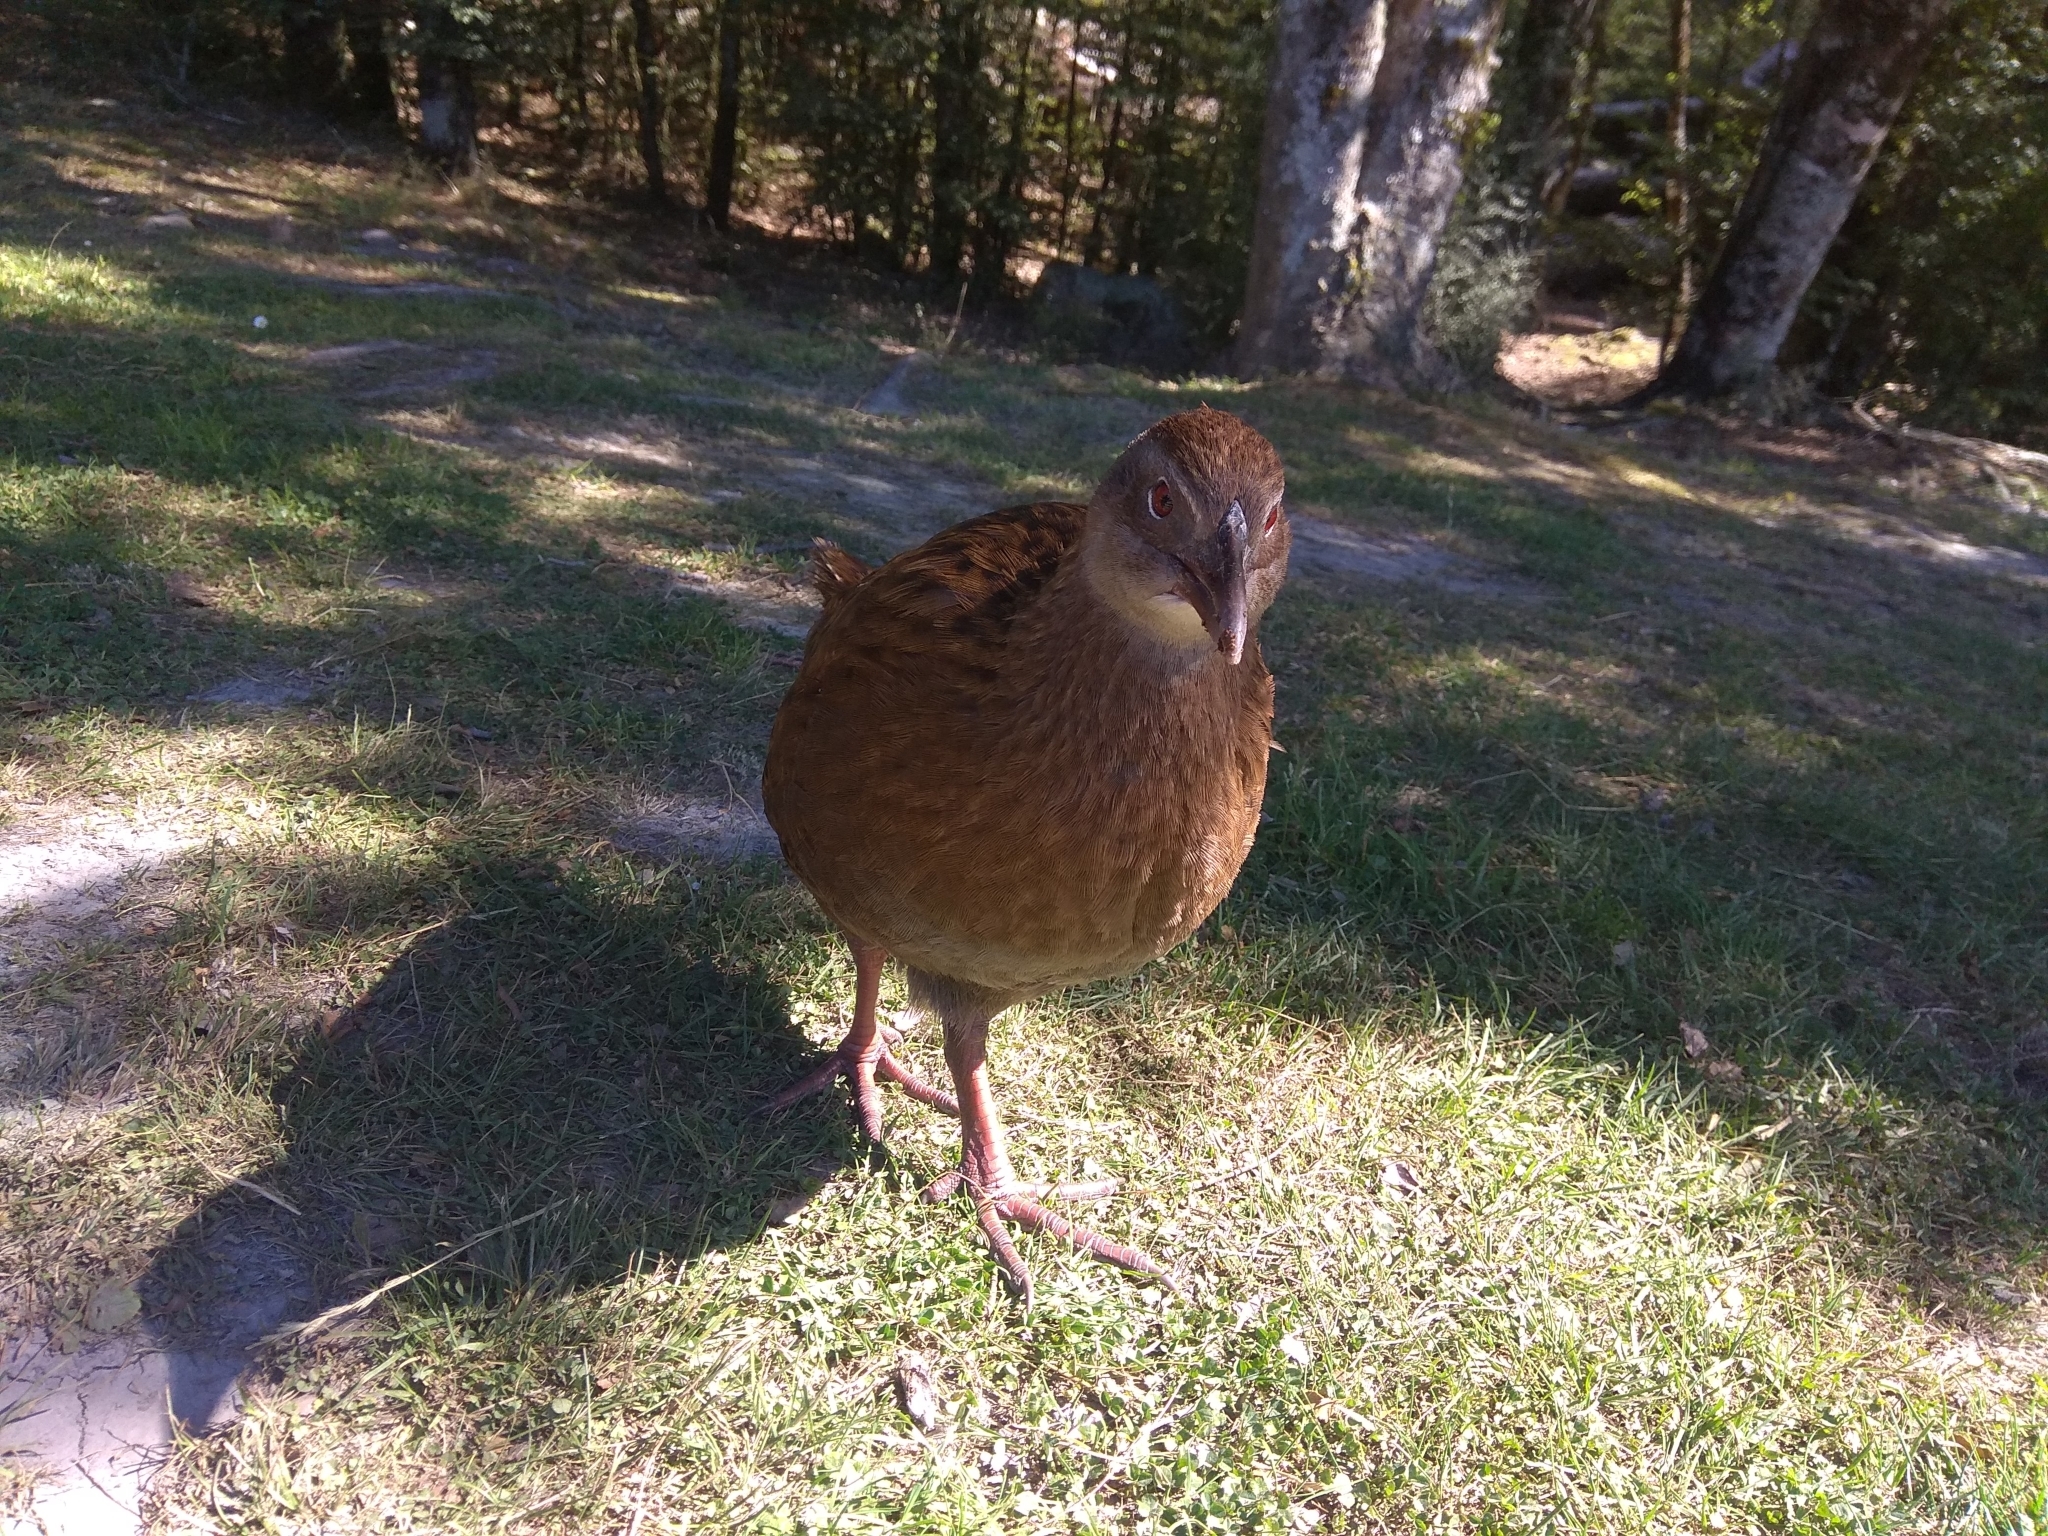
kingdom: Animalia
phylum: Chordata
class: Aves
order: Gruiformes
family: Rallidae
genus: Gallirallus
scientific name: Gallirallus australis
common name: Weka
